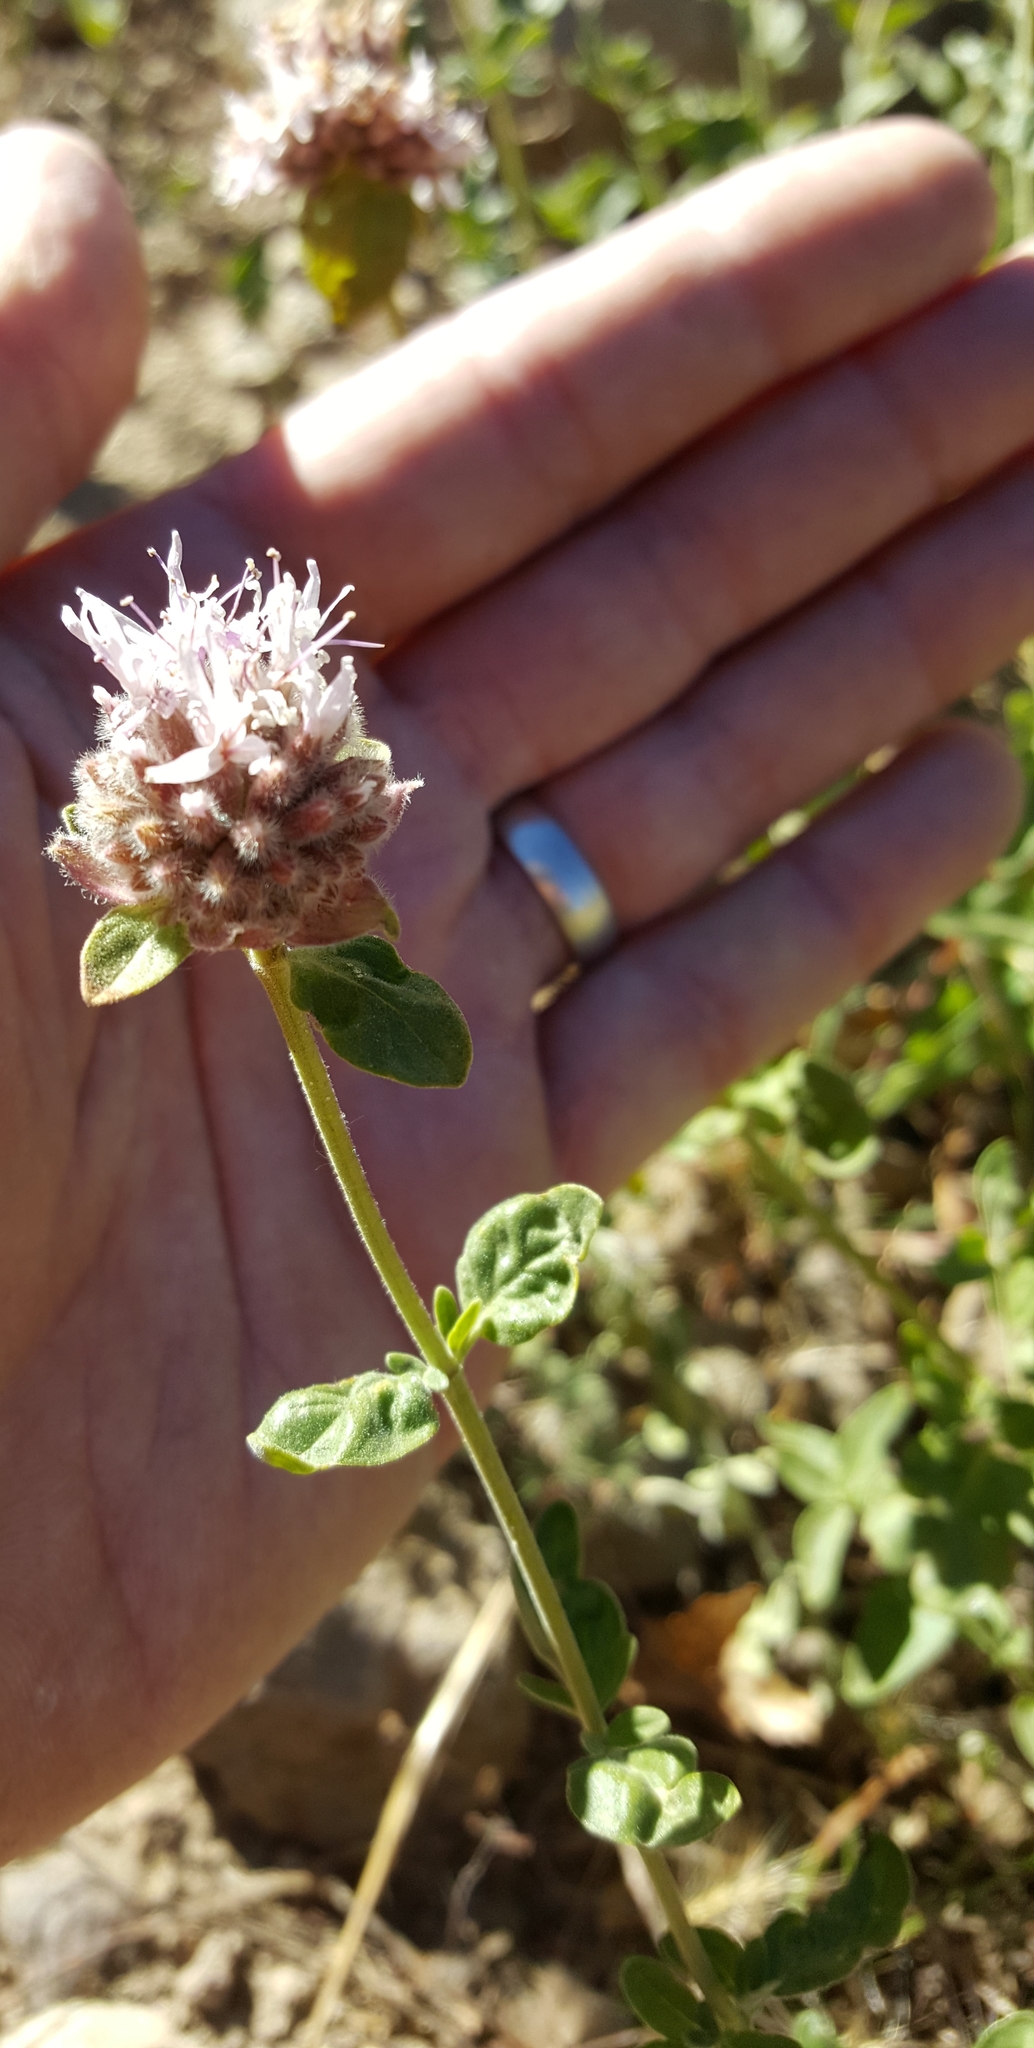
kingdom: Plantae
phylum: Tracheophyta
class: Magnoliopsida
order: Lamiales
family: Lamiaceae
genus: Monardella
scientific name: Monardella
